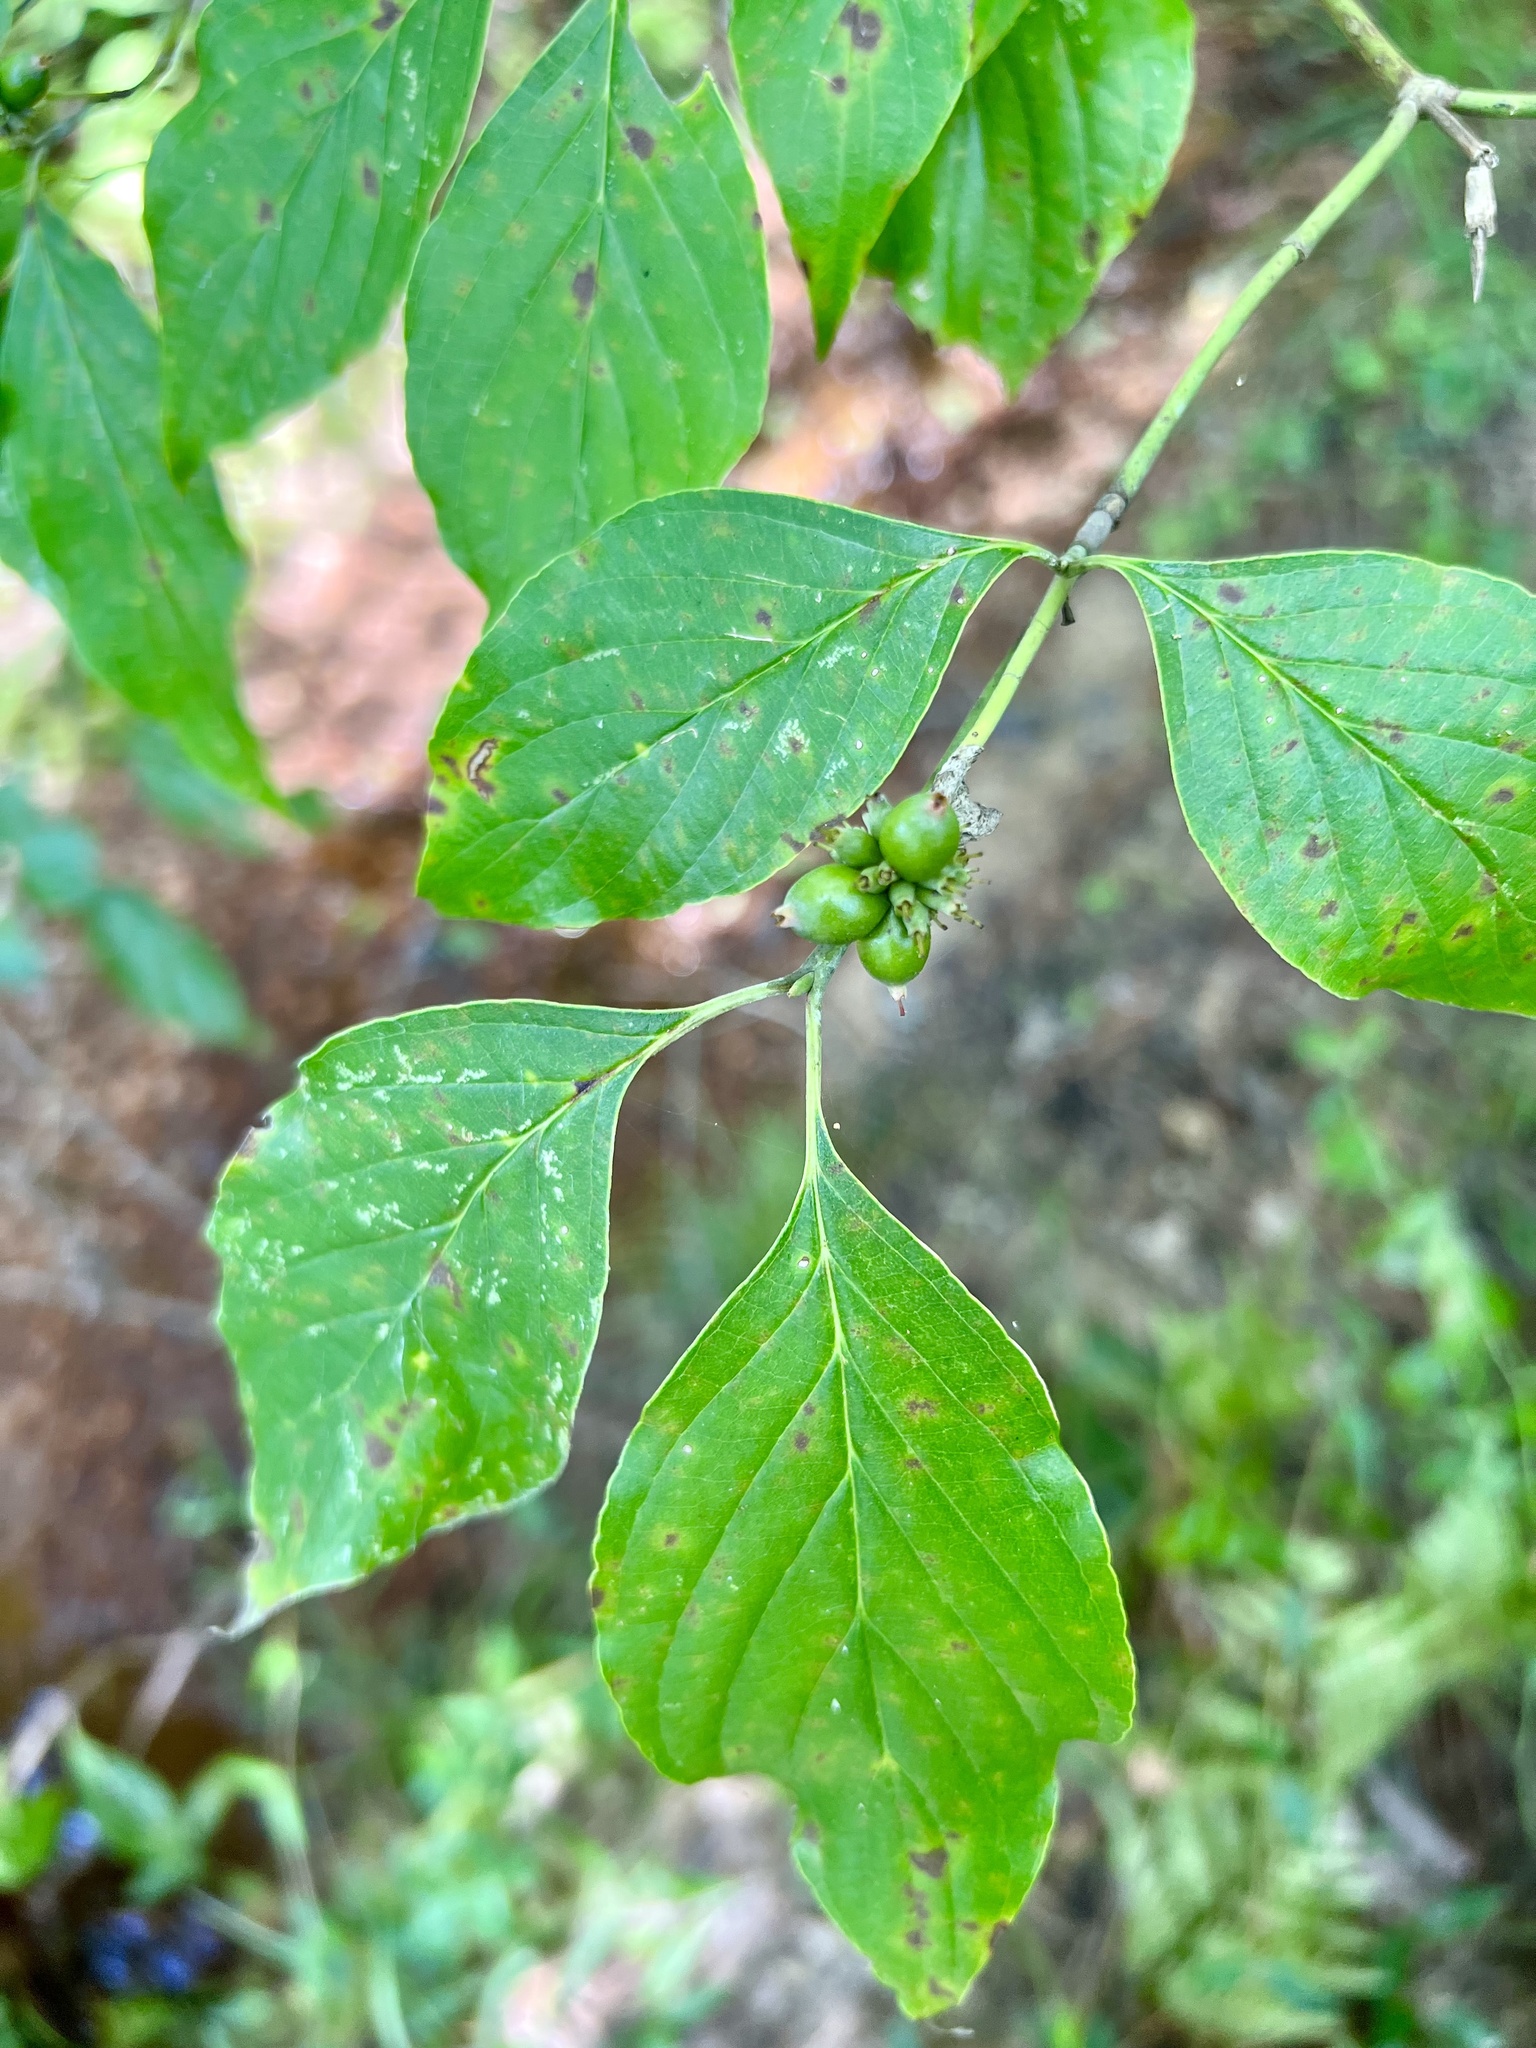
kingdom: Plantae
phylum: Tracheophyta
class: Magnoliopsida
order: Cornales
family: Cornaceae
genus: Cornus
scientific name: Cornus florida
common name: Flowering dogwood
